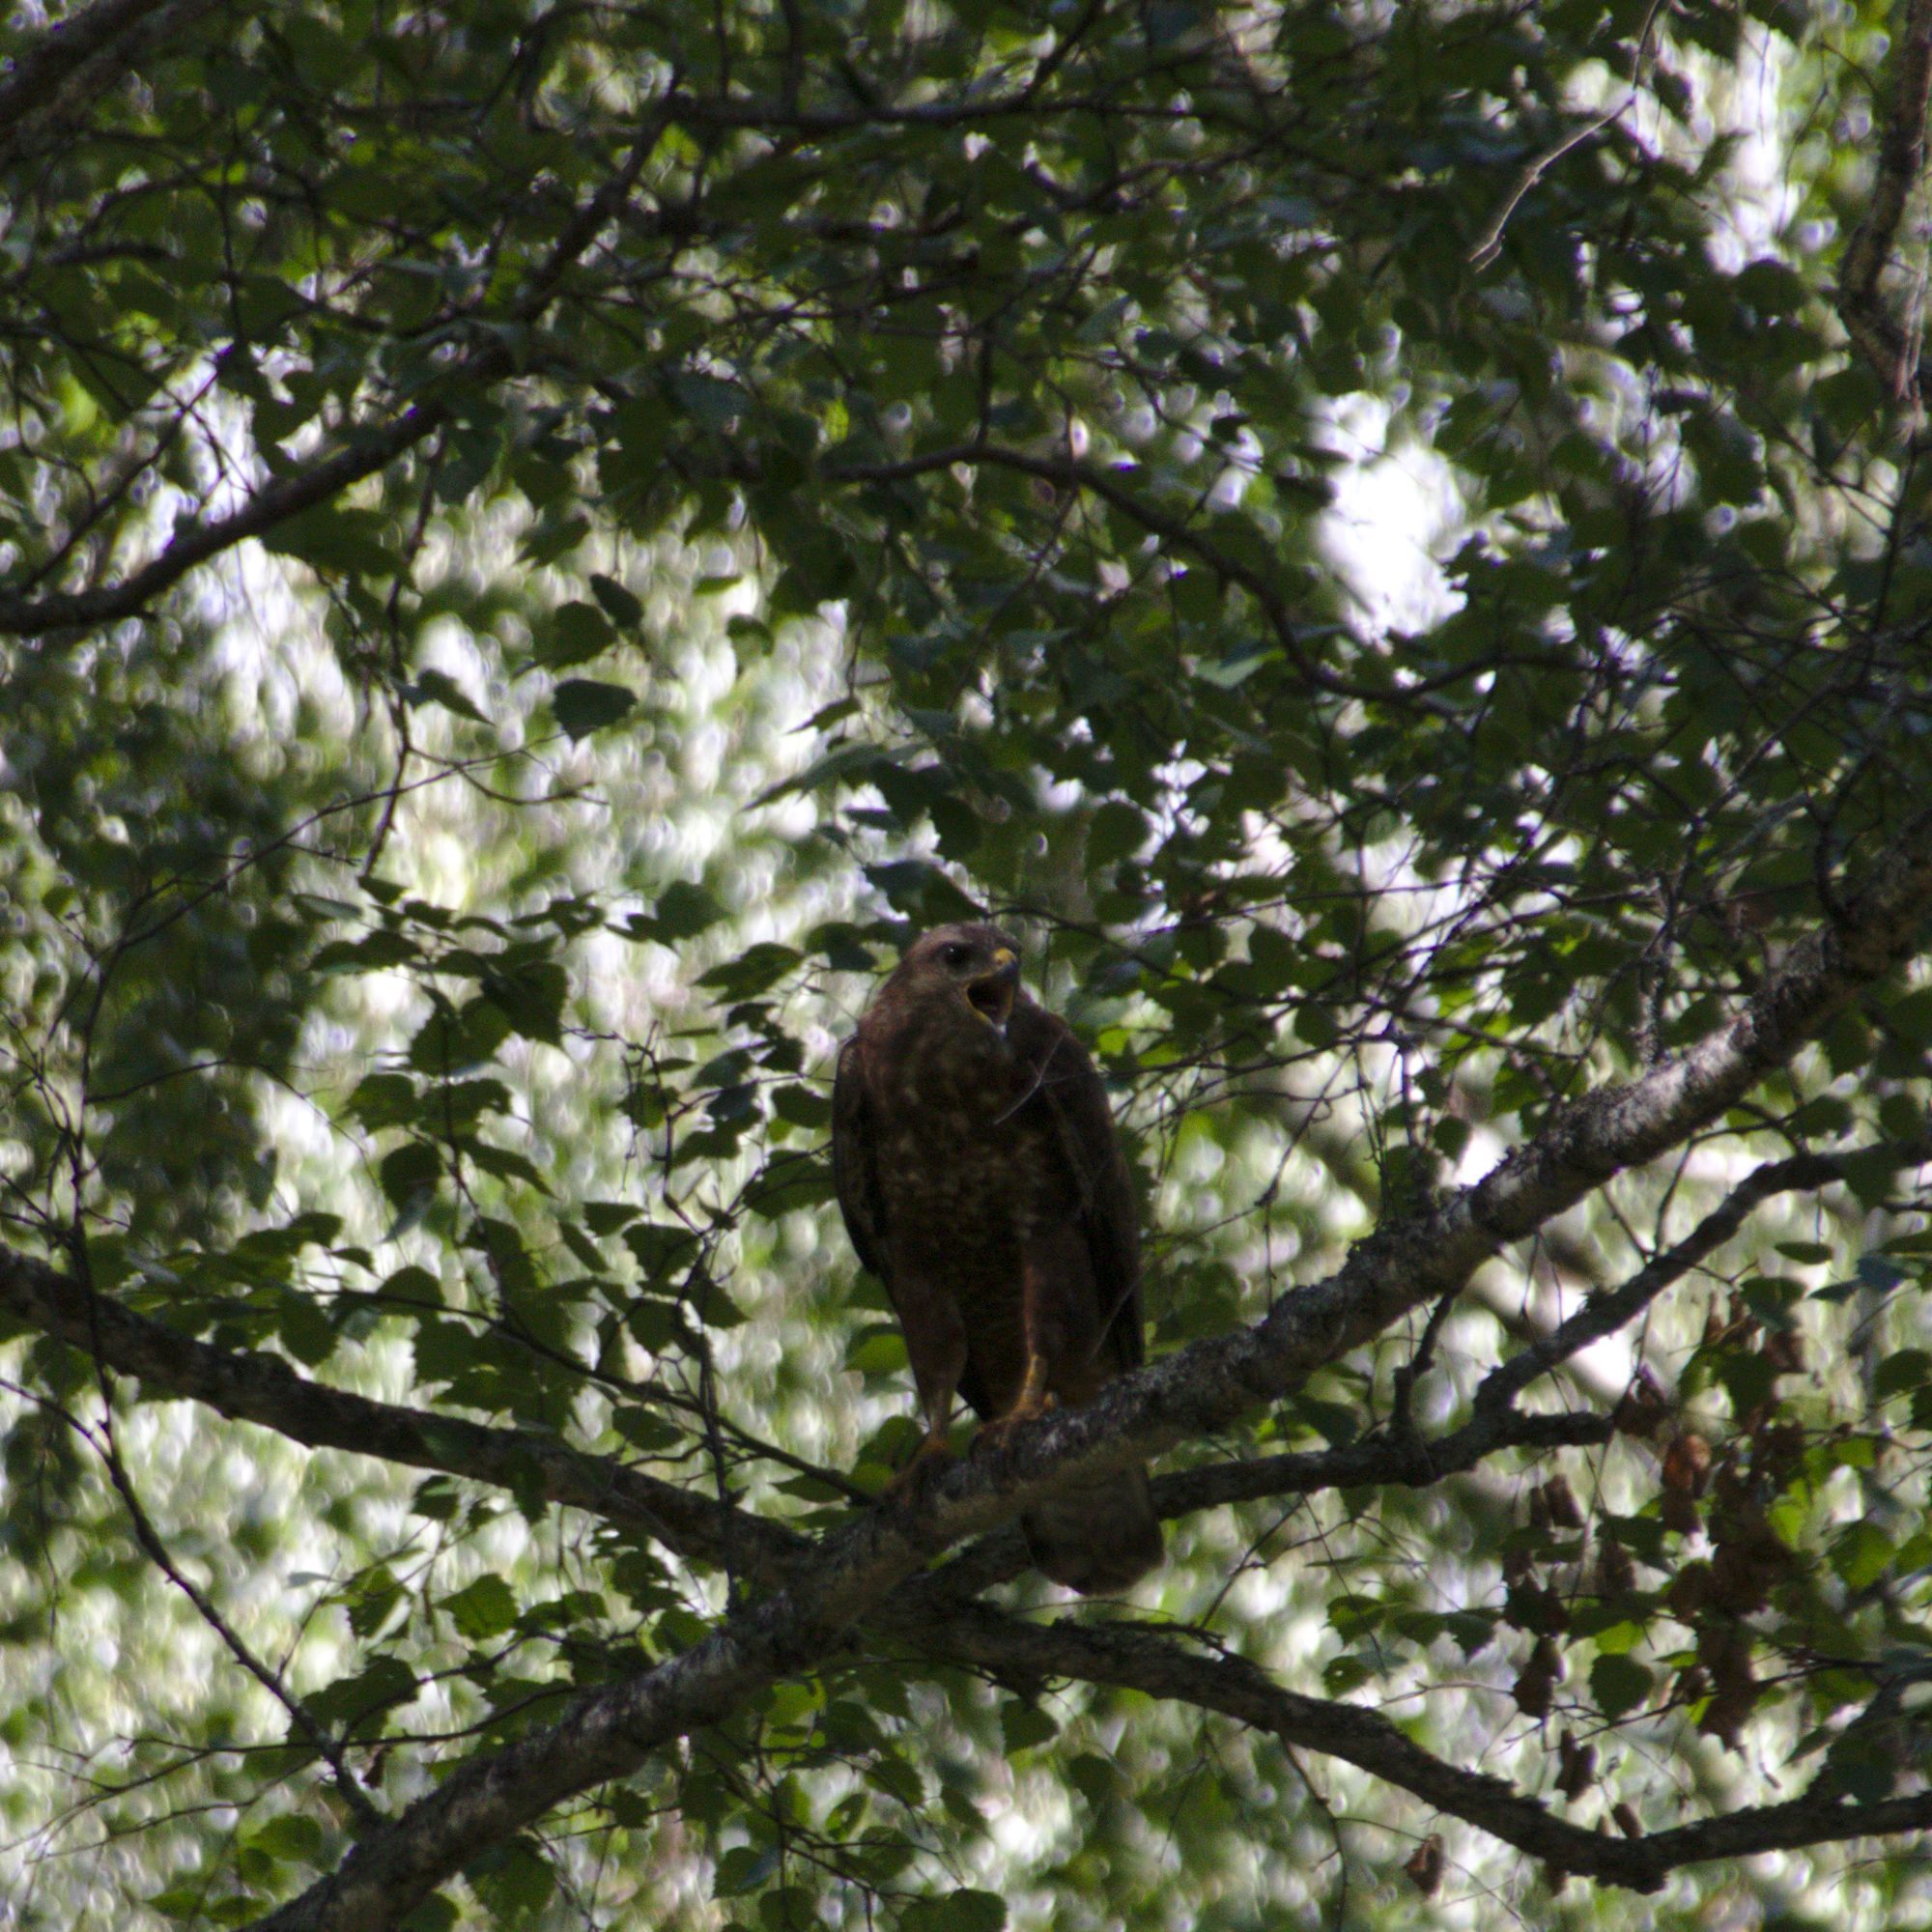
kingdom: Animalia
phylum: Chordata
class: Aves
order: Accipitriformes
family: Accipitridae
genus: Buteo
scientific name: Buteo buteo
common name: Common buzzard
